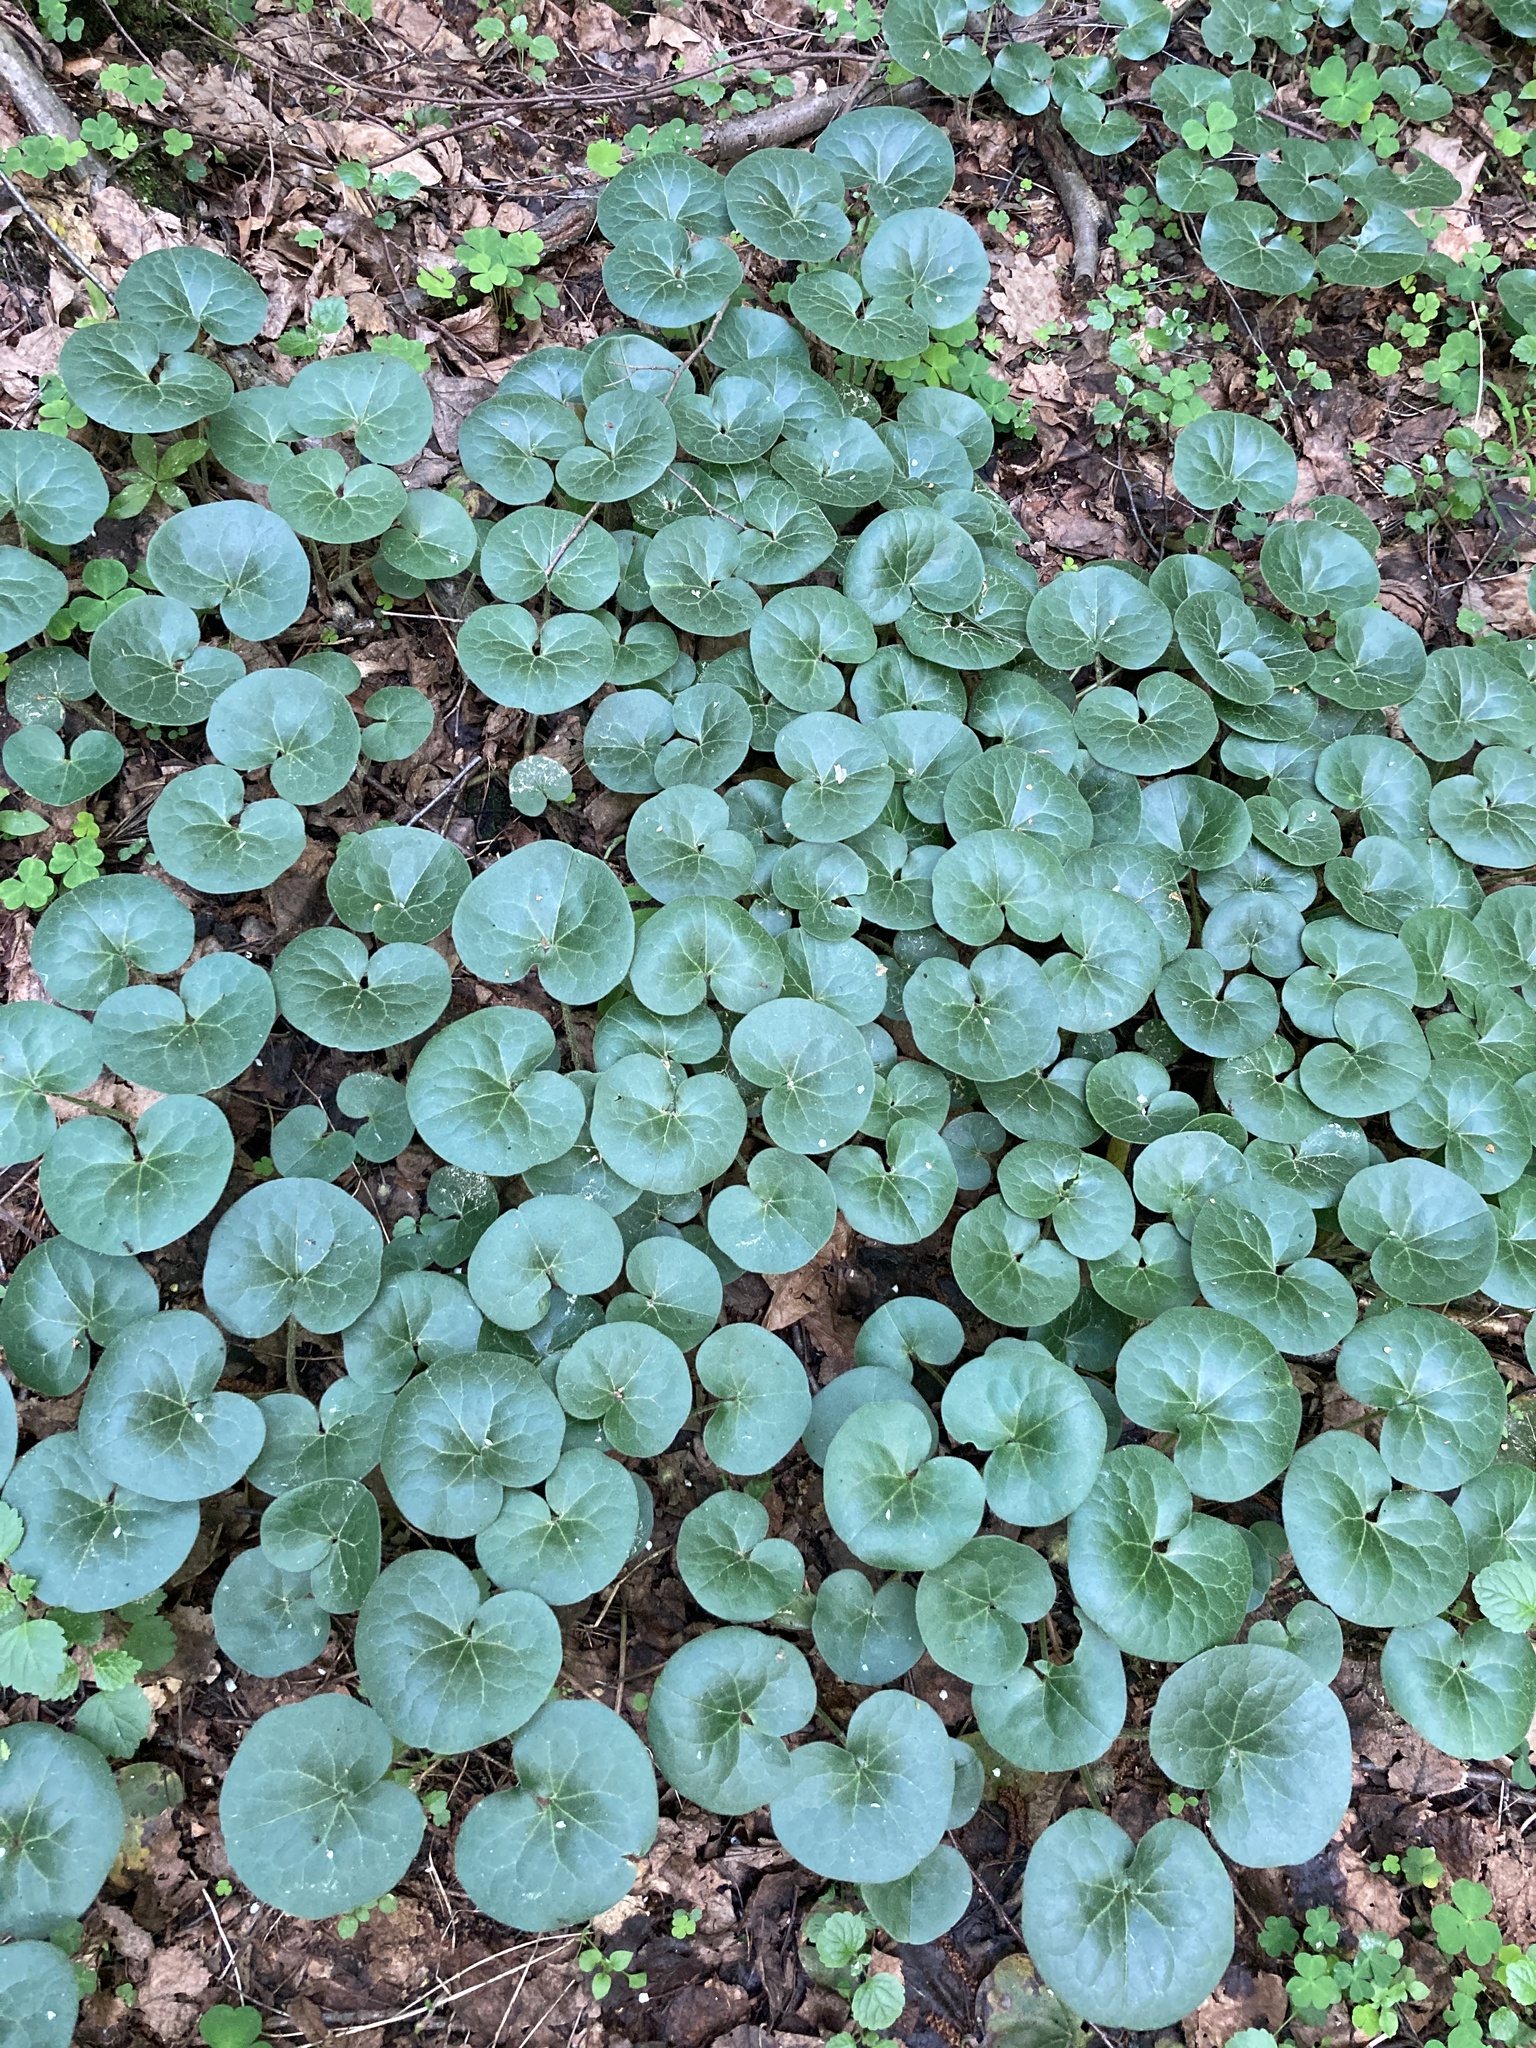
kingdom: Plantae
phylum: Tracheophyta
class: Magnoliopsida
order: Piperales
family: Aristolochiaceae
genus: Asarum
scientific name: Asarum europaeum
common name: Asarabacca
